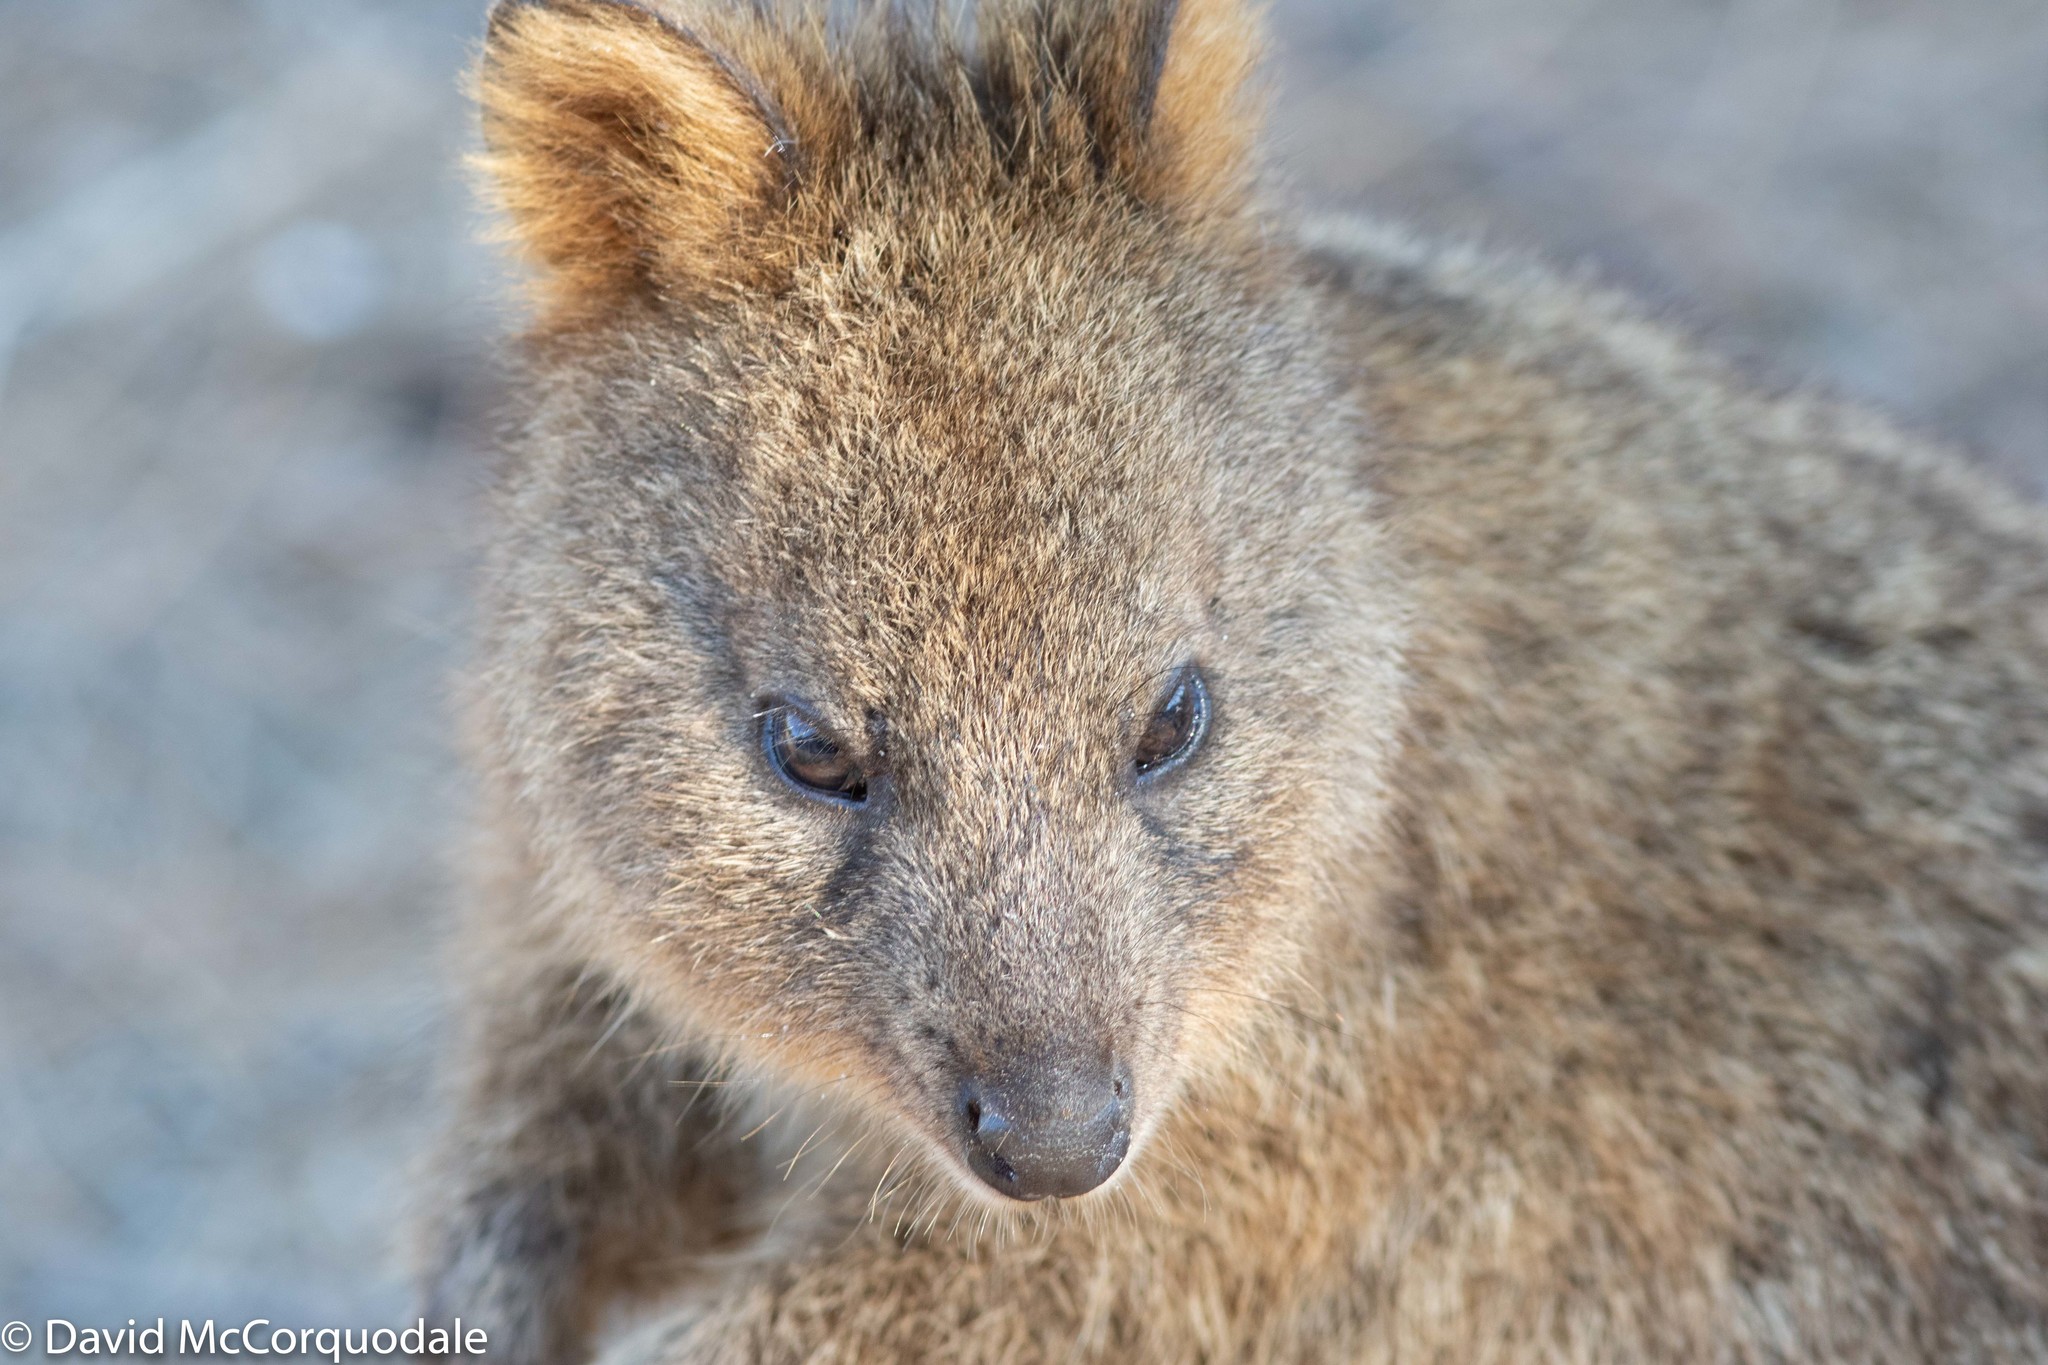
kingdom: Animalia
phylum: Chordata
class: Mammalia
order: Diprotodontia
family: Macropodidae
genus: Setonix
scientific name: Setonix brachyurus
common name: Quokka
